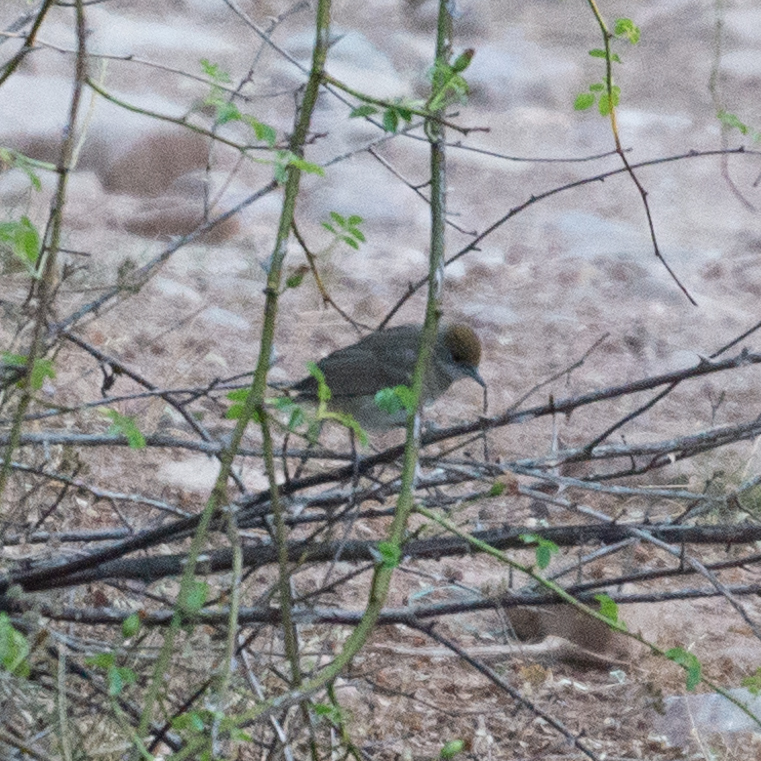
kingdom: Animalia
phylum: Chordata
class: Aves
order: Passeriformes
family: Sylviidae
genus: Sylvia
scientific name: Sylvia atricapilla
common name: Eurasian blackcap
